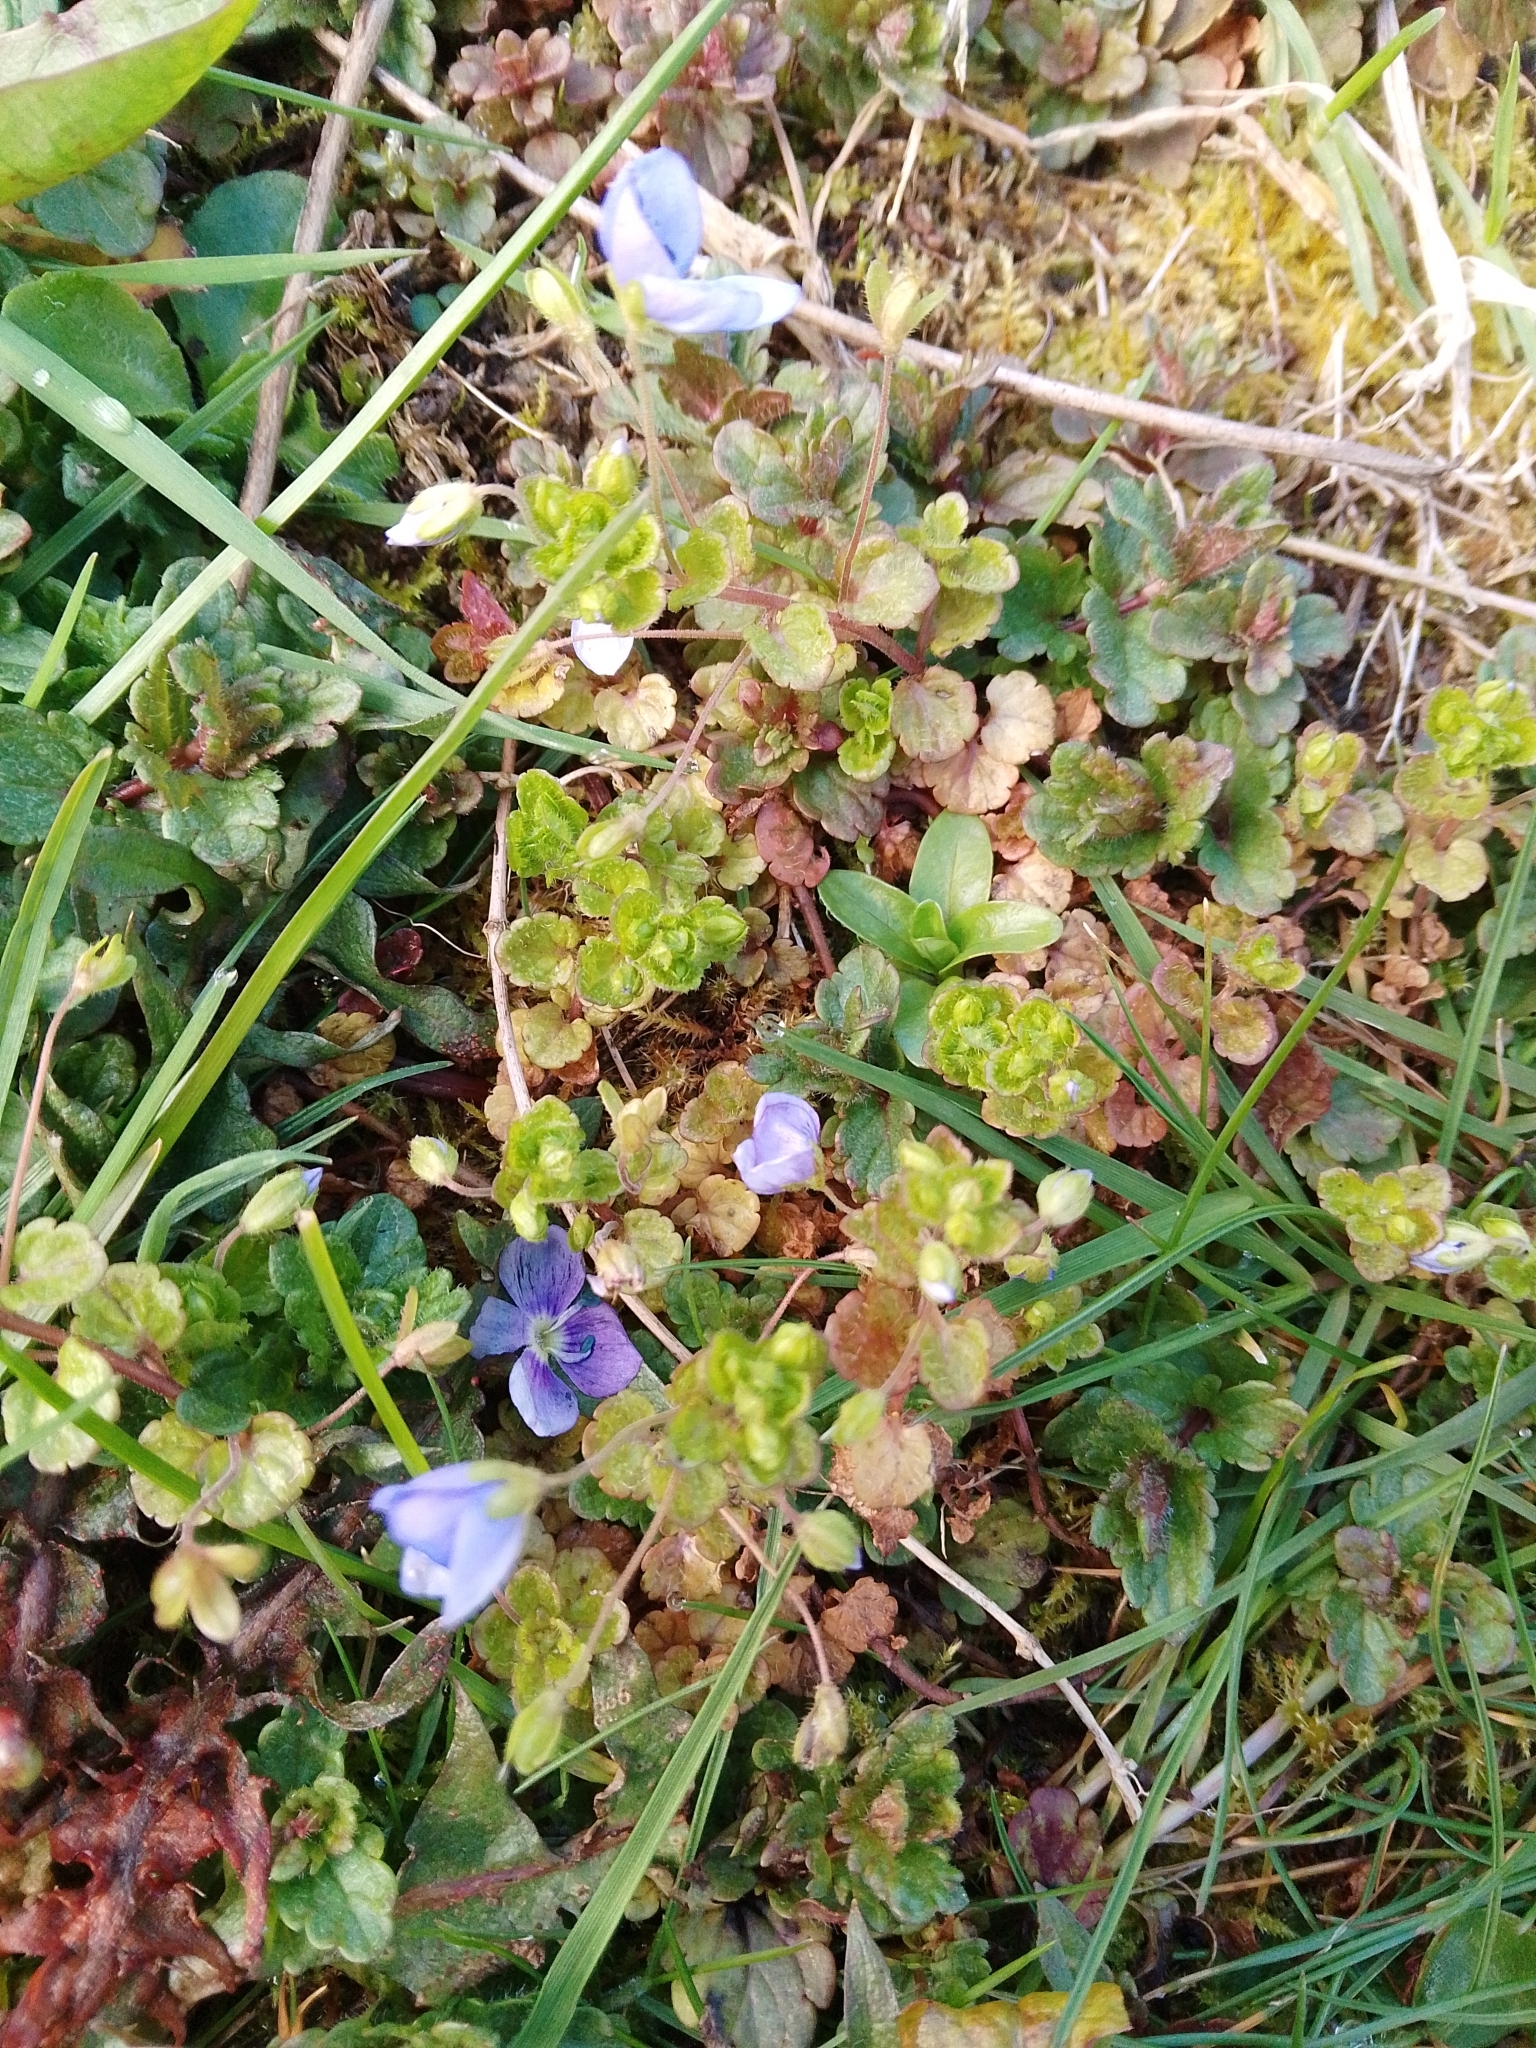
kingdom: Plantae
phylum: Tracheophyta
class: Magnoliopsida
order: Lamiales
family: Plantaginaceae
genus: Veronica
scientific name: Veronica filiformis
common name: Slender speedwell
